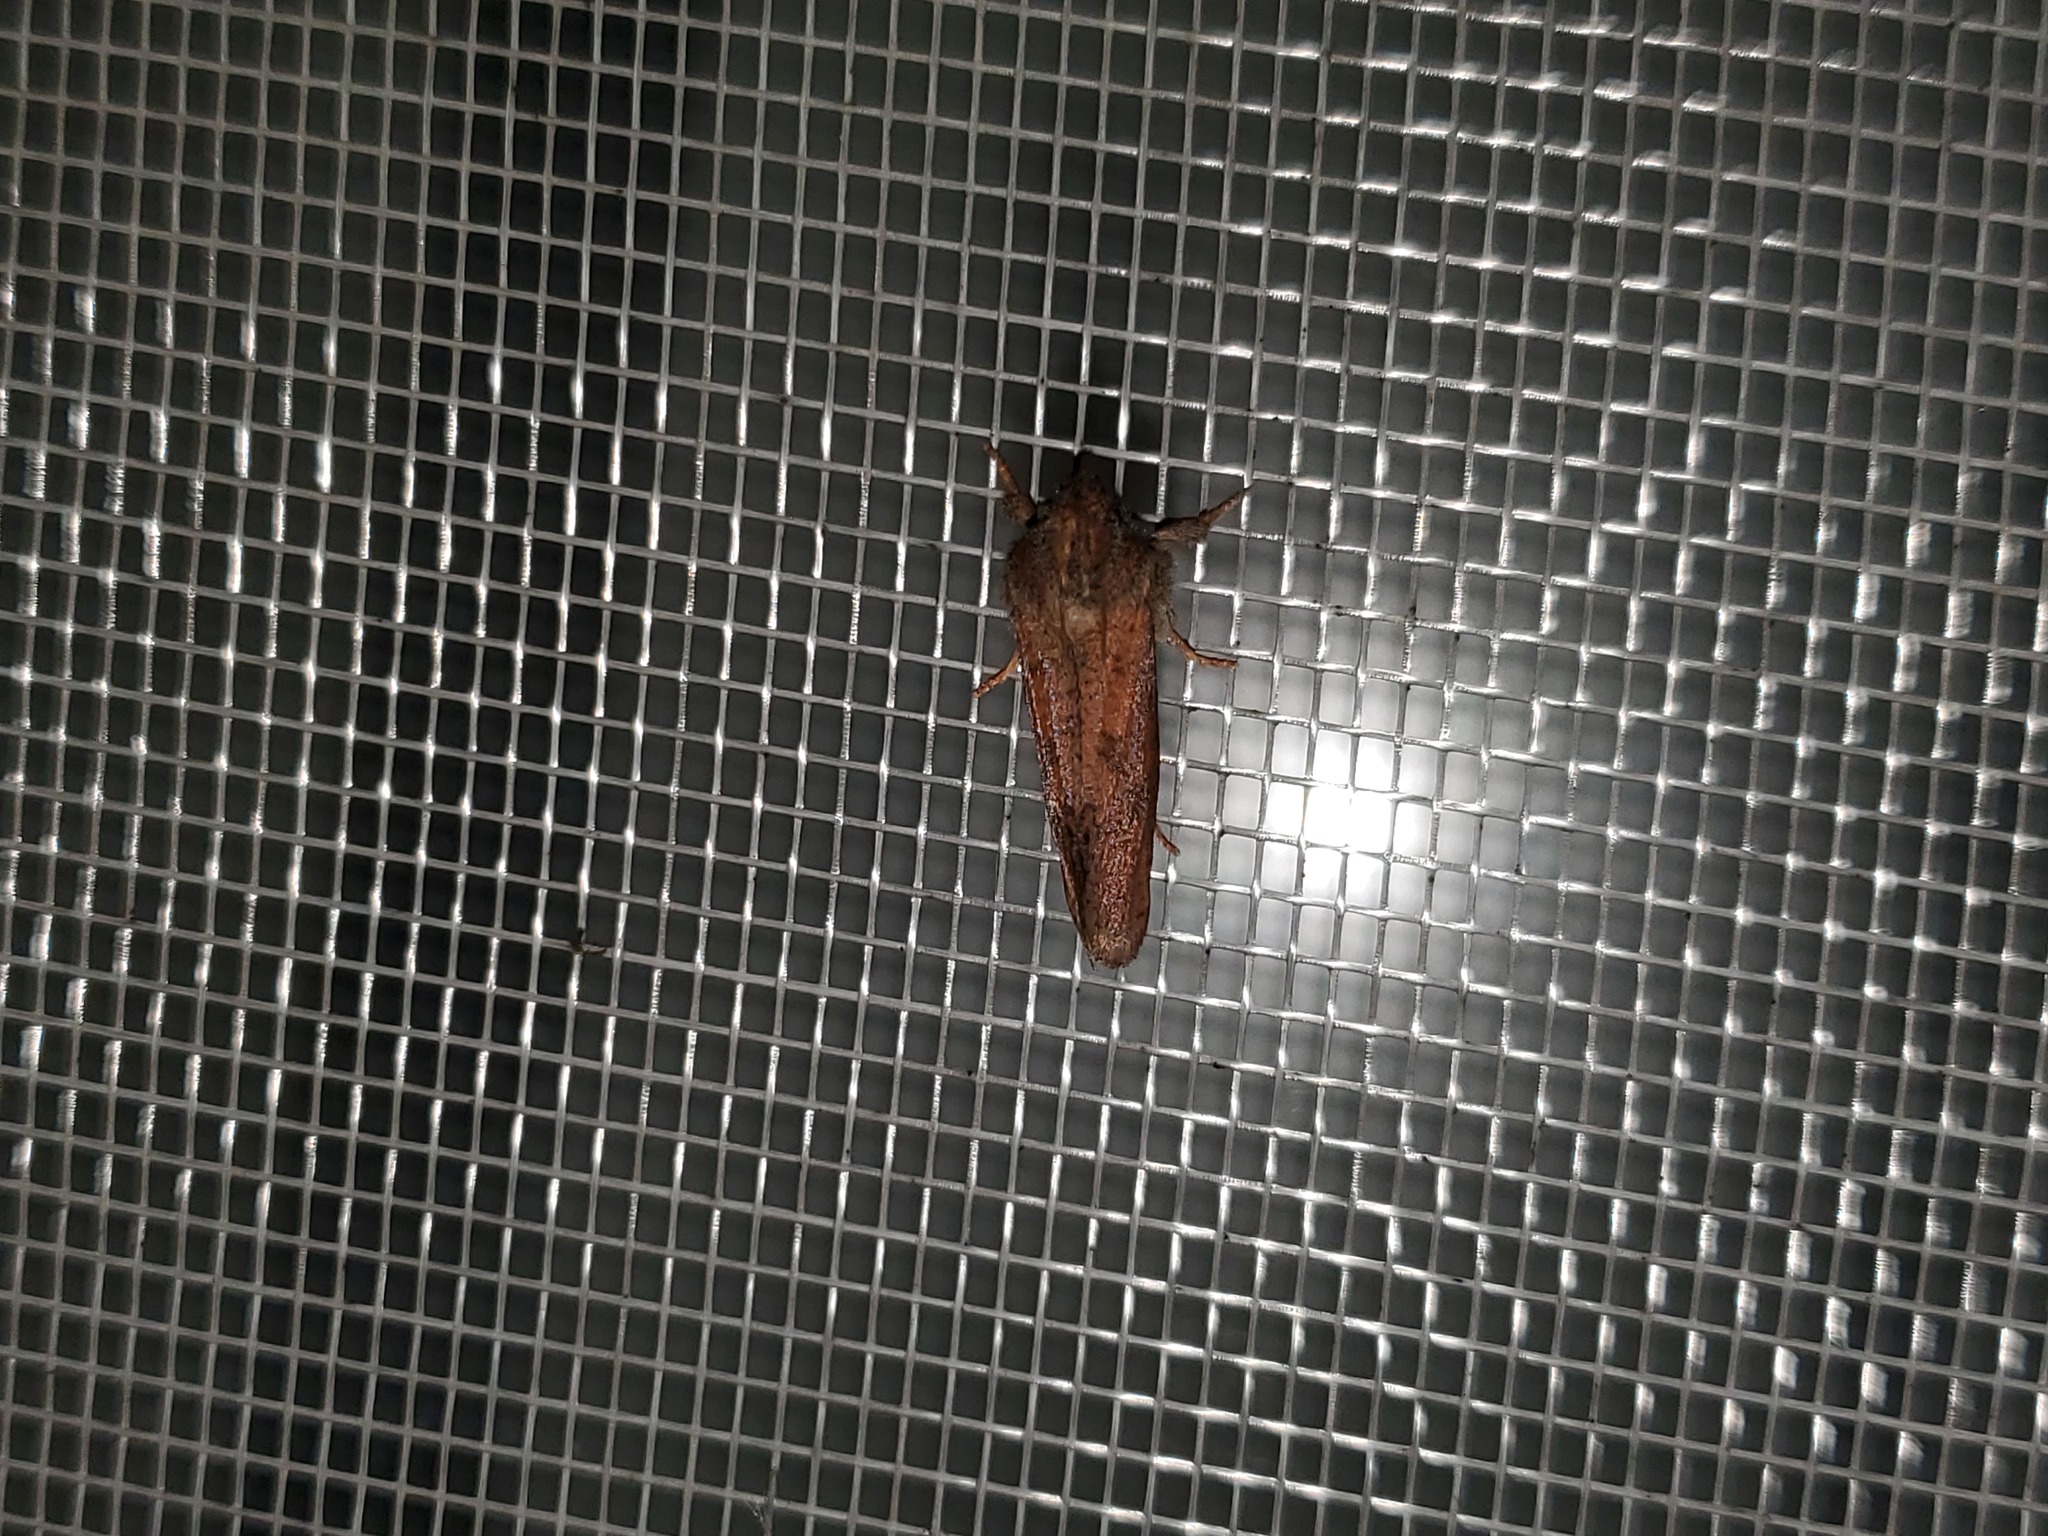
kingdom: Animalia
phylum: Arthropoda
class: Insecta
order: Lepidoptera
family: Tineidae
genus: Acrolophus
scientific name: Acrolophus plumifrontella
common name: Eastern grass tubeworm moth
